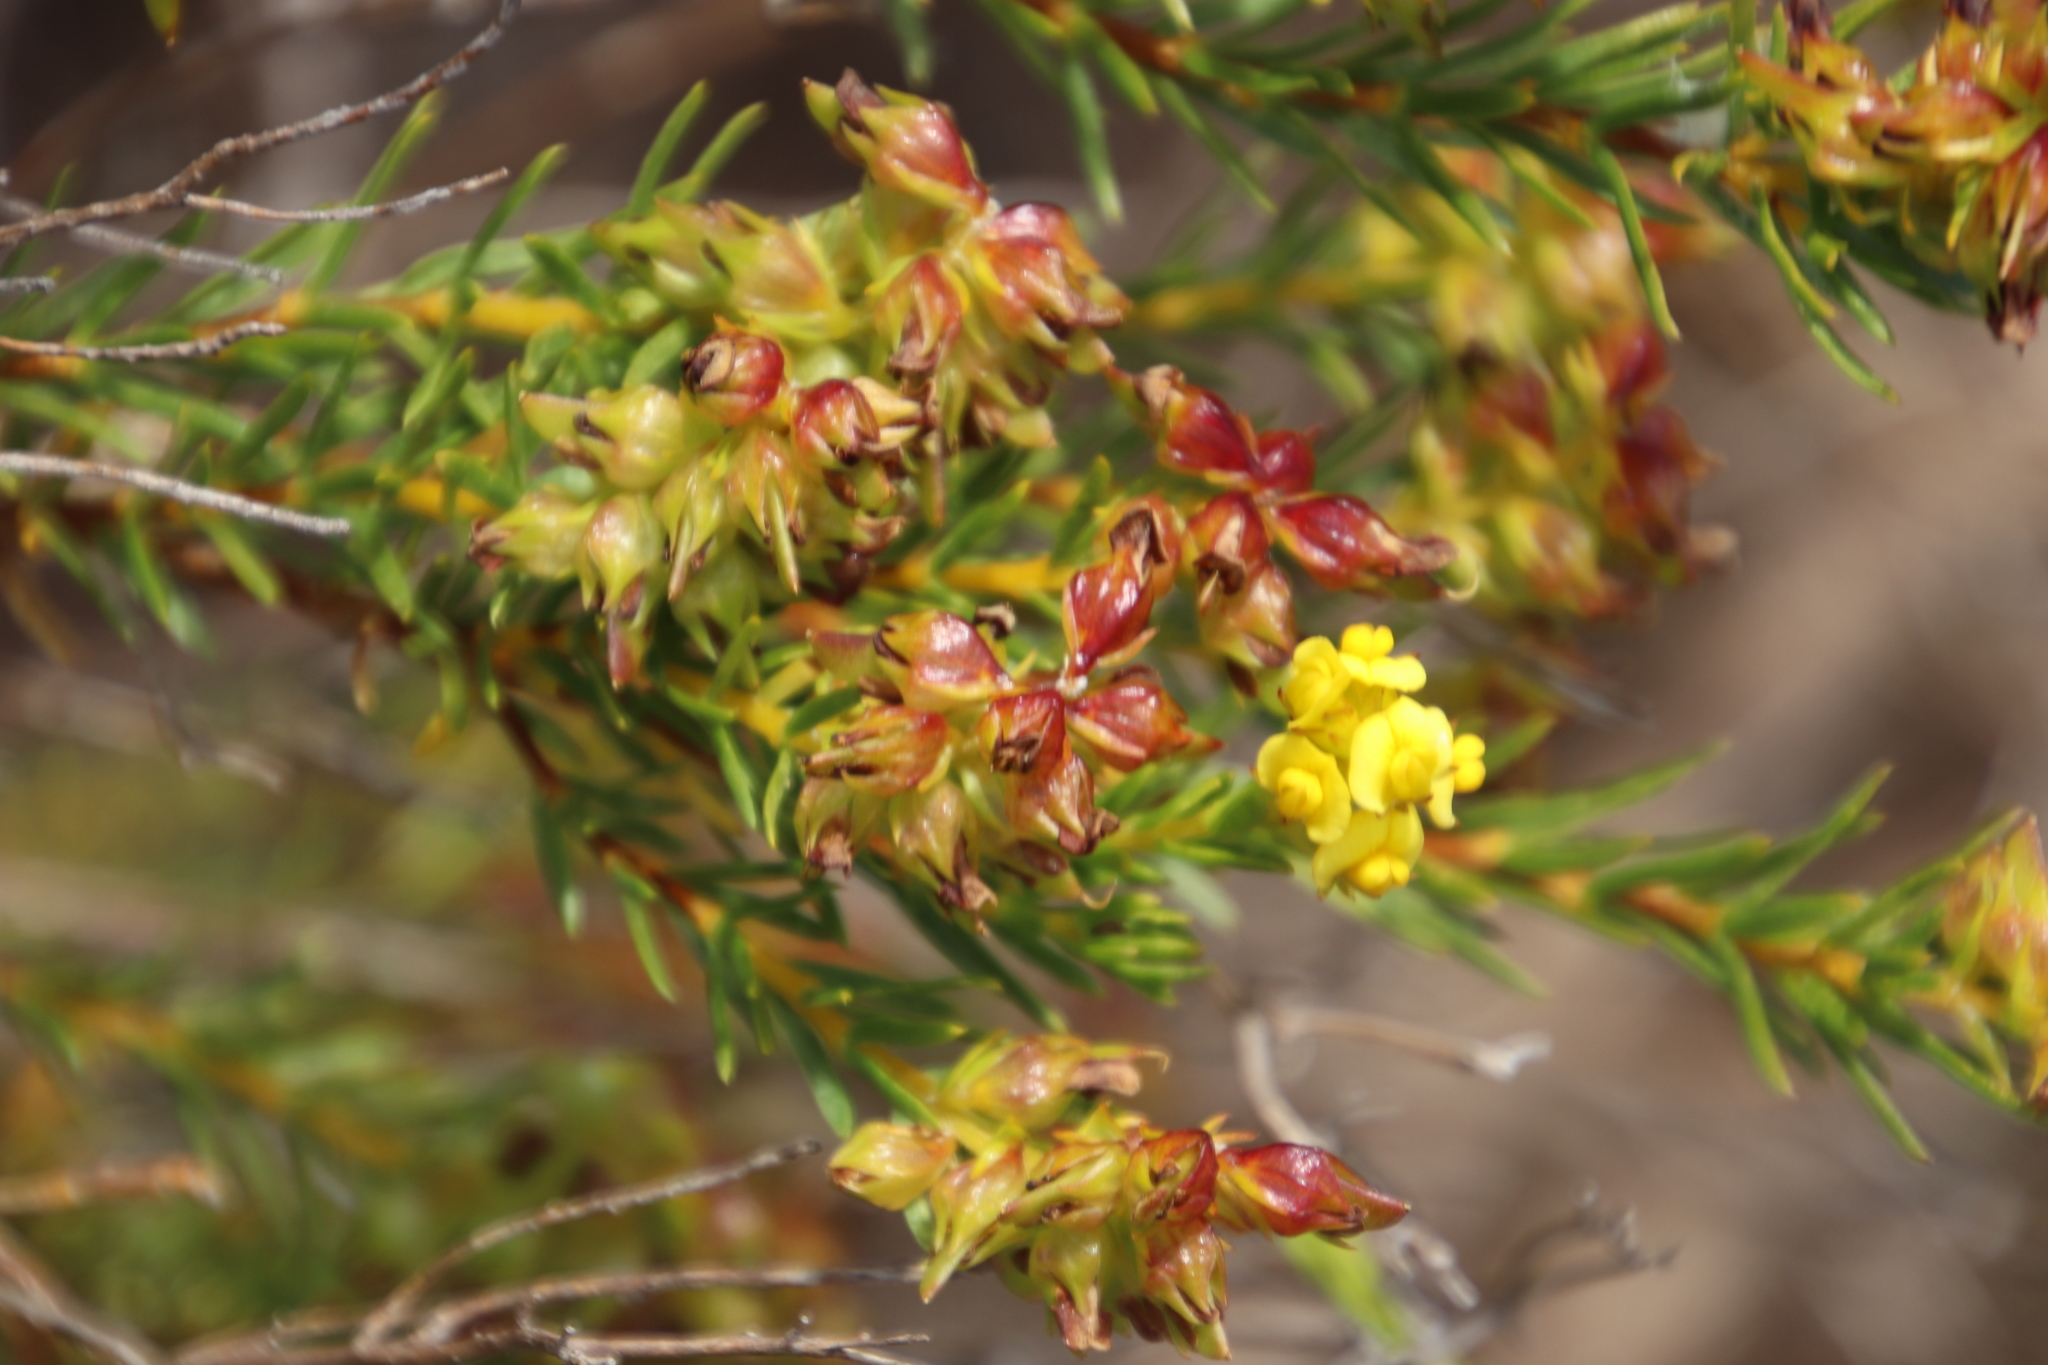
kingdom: Plantae
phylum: Tracheophyta
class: Magnoliopsida
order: Fabales
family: Fabaceae
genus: Aspalathus
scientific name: Aspalathus callosa
